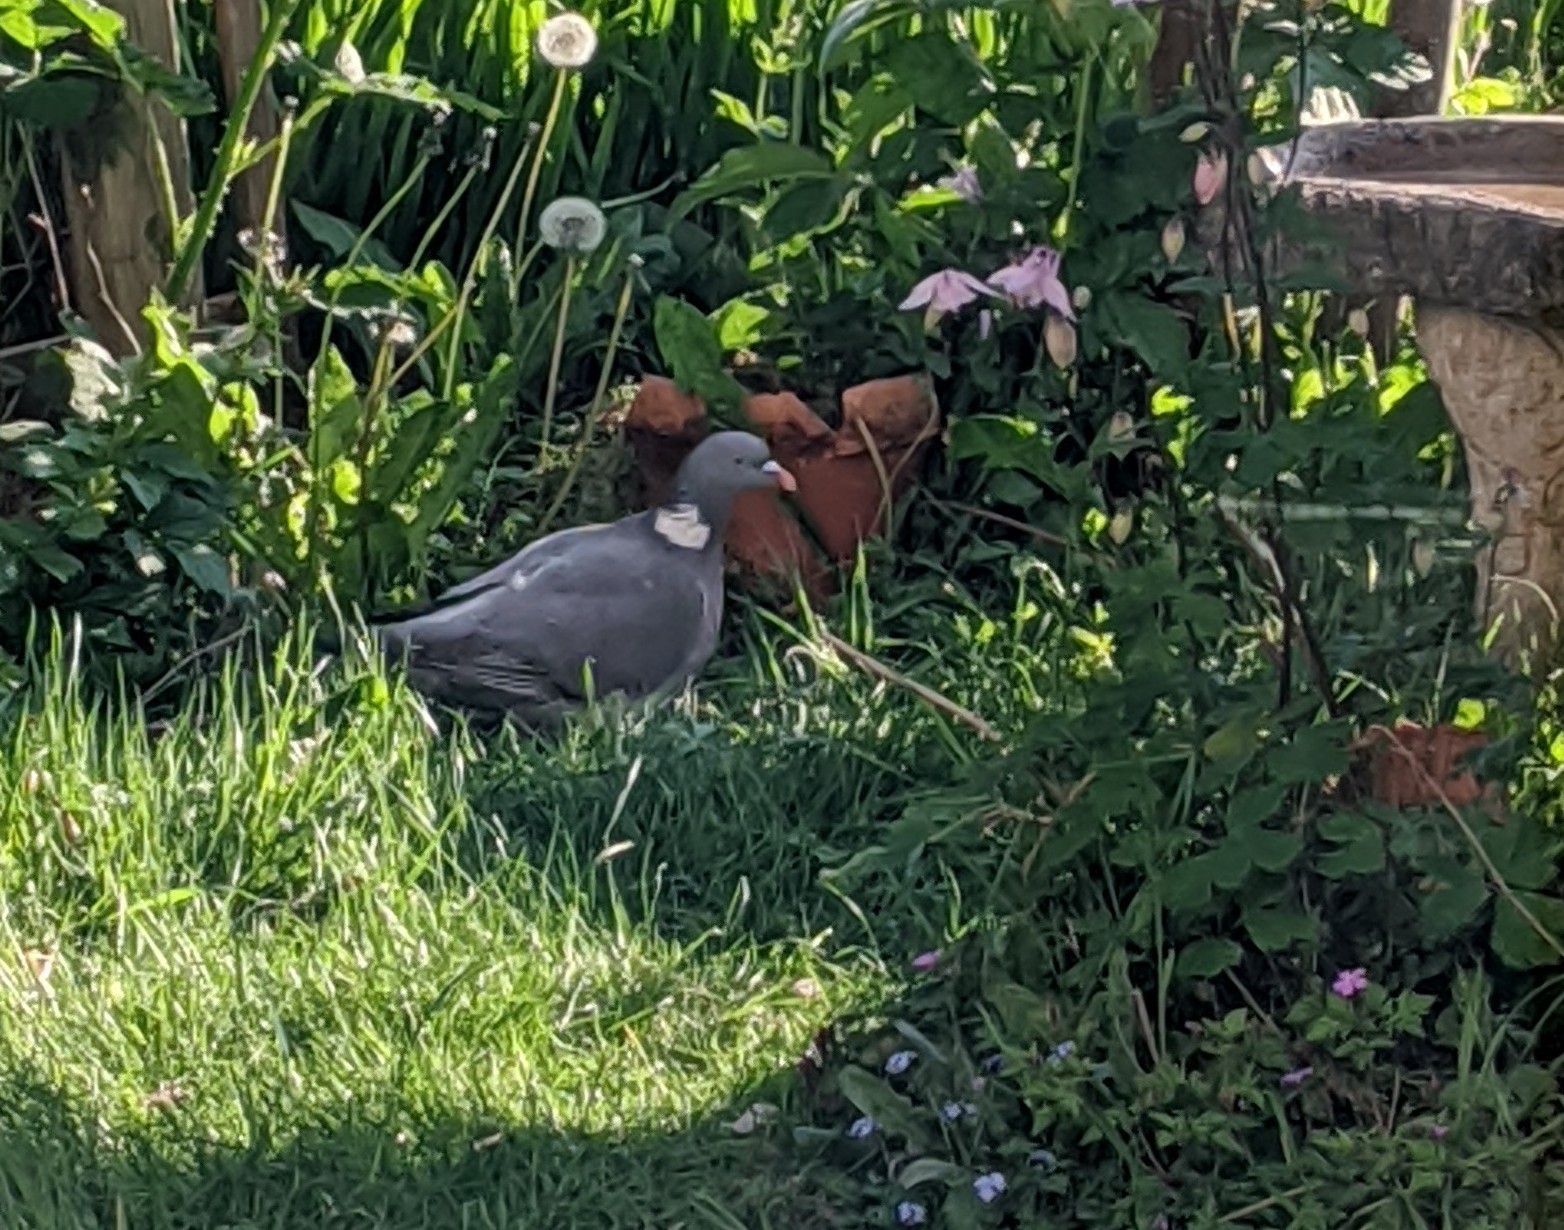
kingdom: Animalia
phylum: Chordata
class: Aves
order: Columbiformes
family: Columbidae
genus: Columba
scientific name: Columba palumbus
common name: Common wood pigeon
